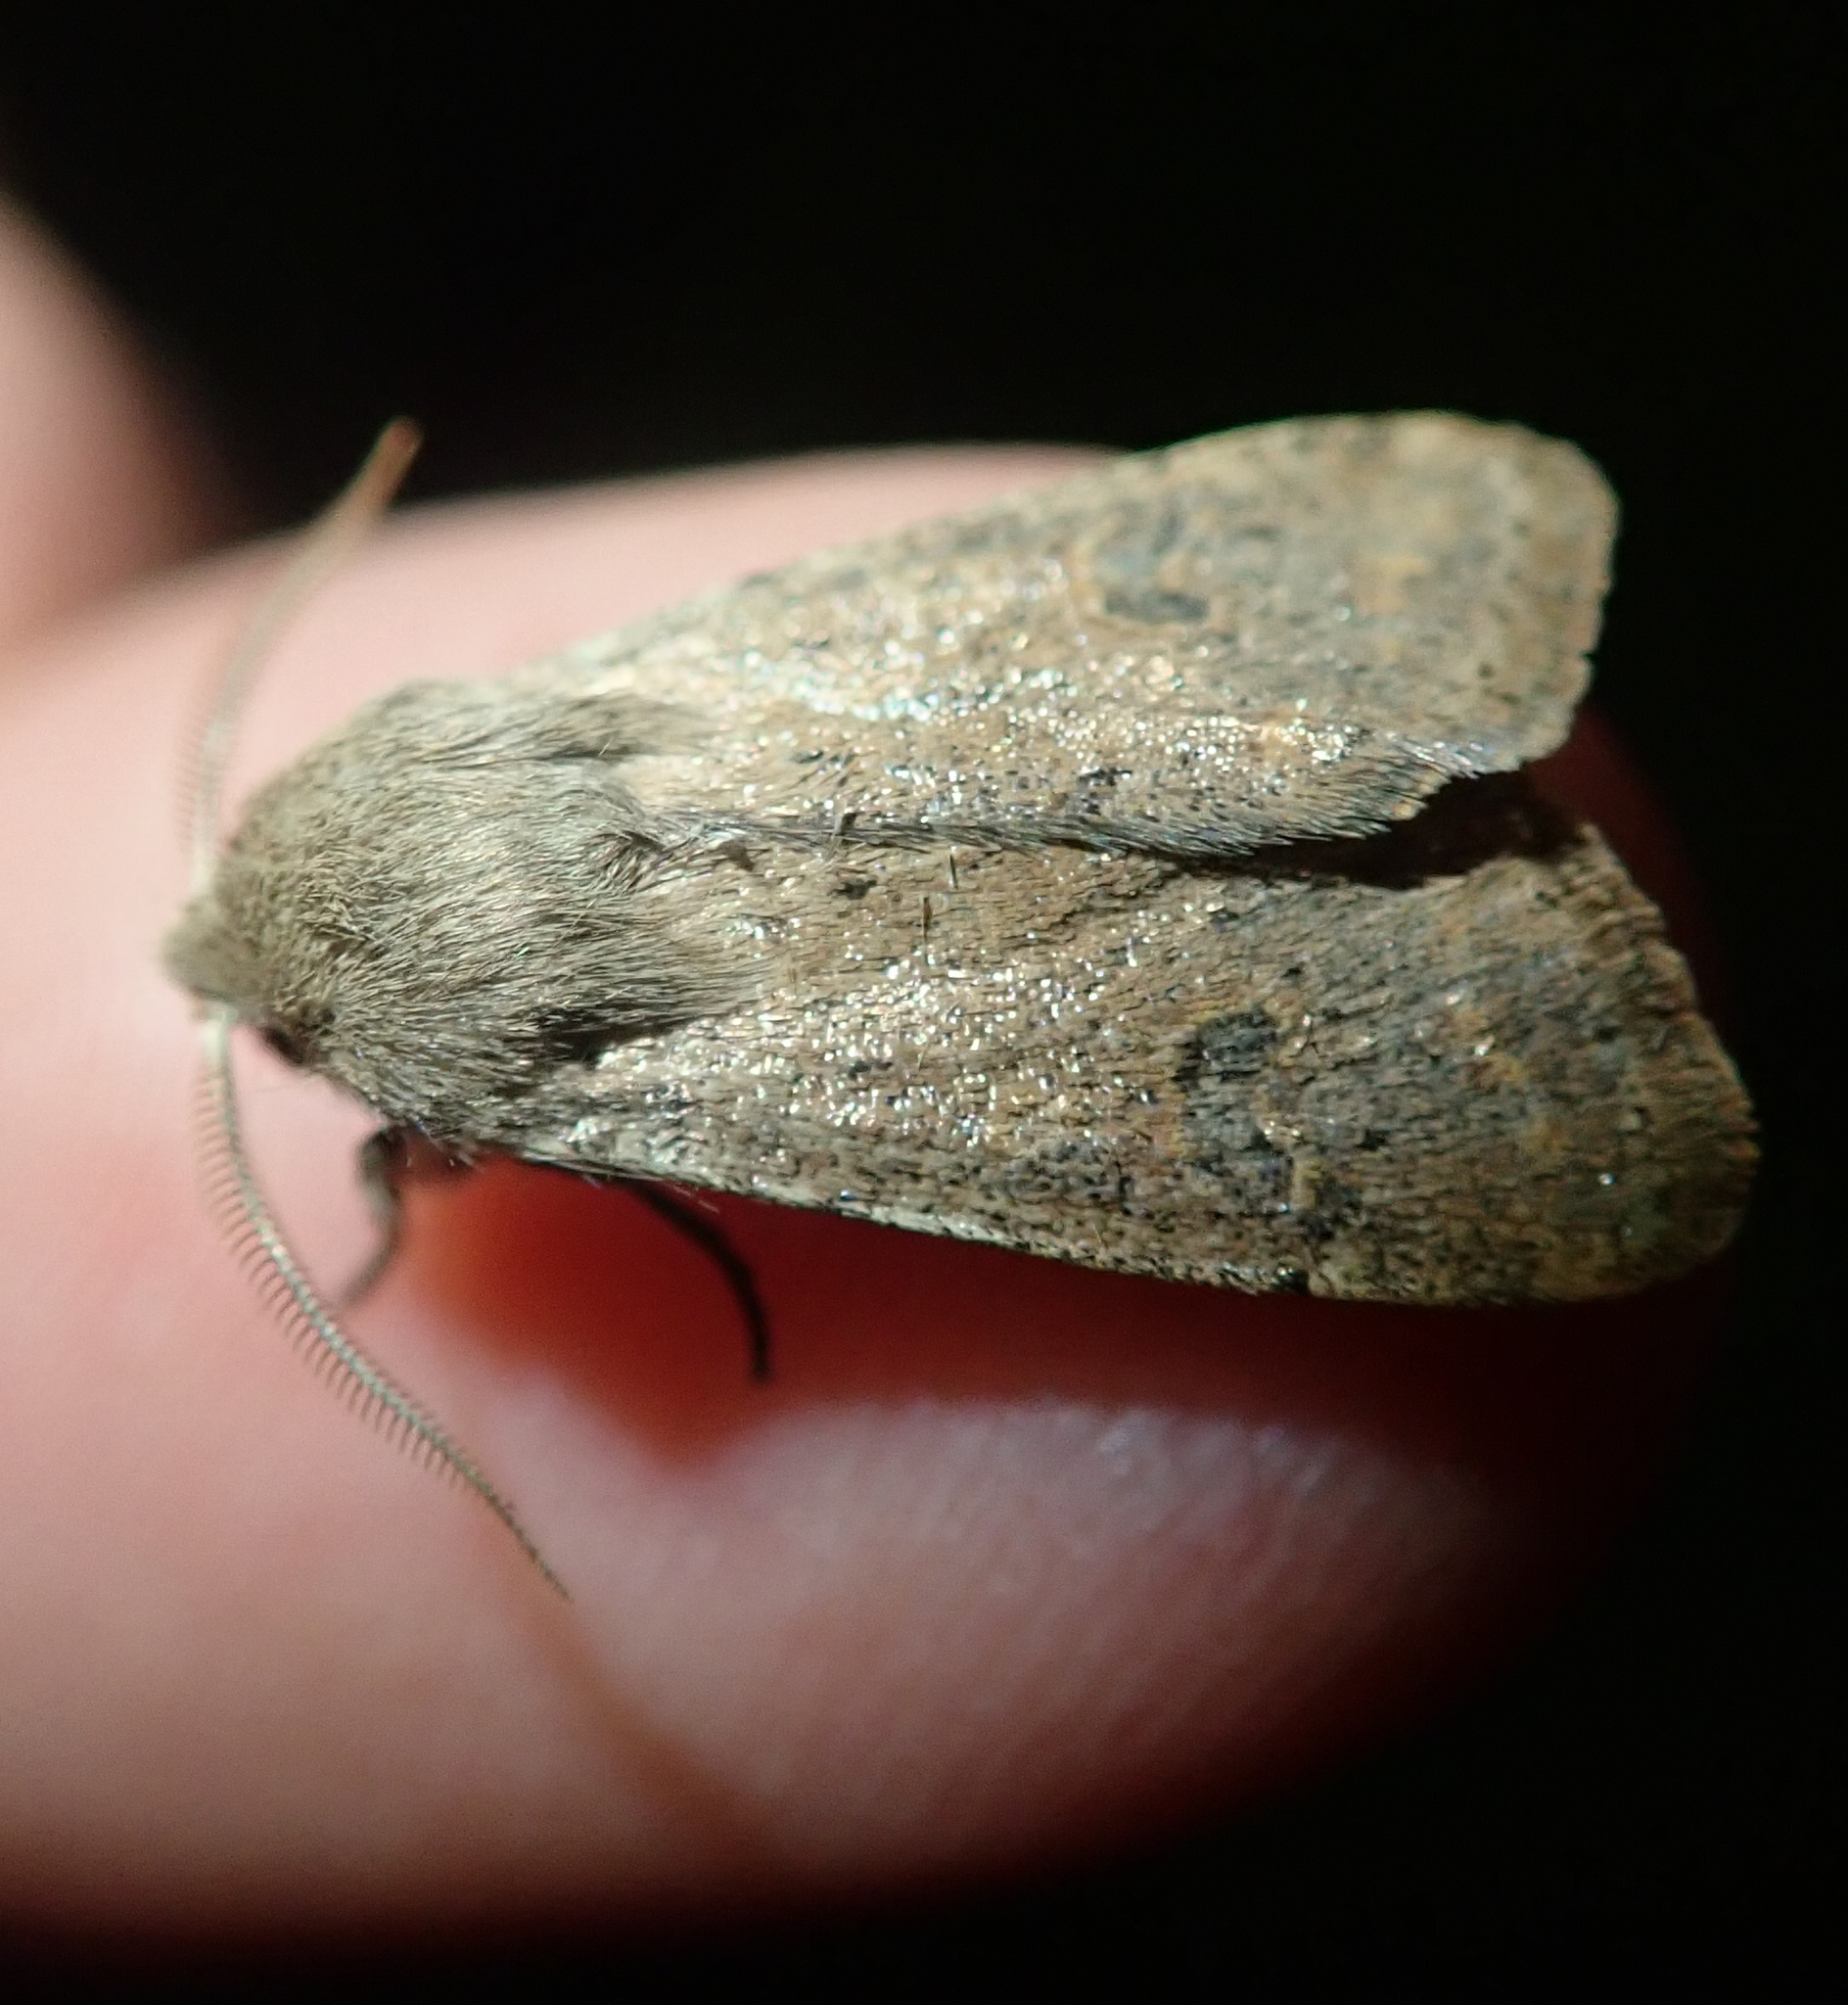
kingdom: Animalia
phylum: Arthropoda
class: Insecta
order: Lepidoptera
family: Noctuidae
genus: Orthosia
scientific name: Orthosia cruda
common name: Small quaker
